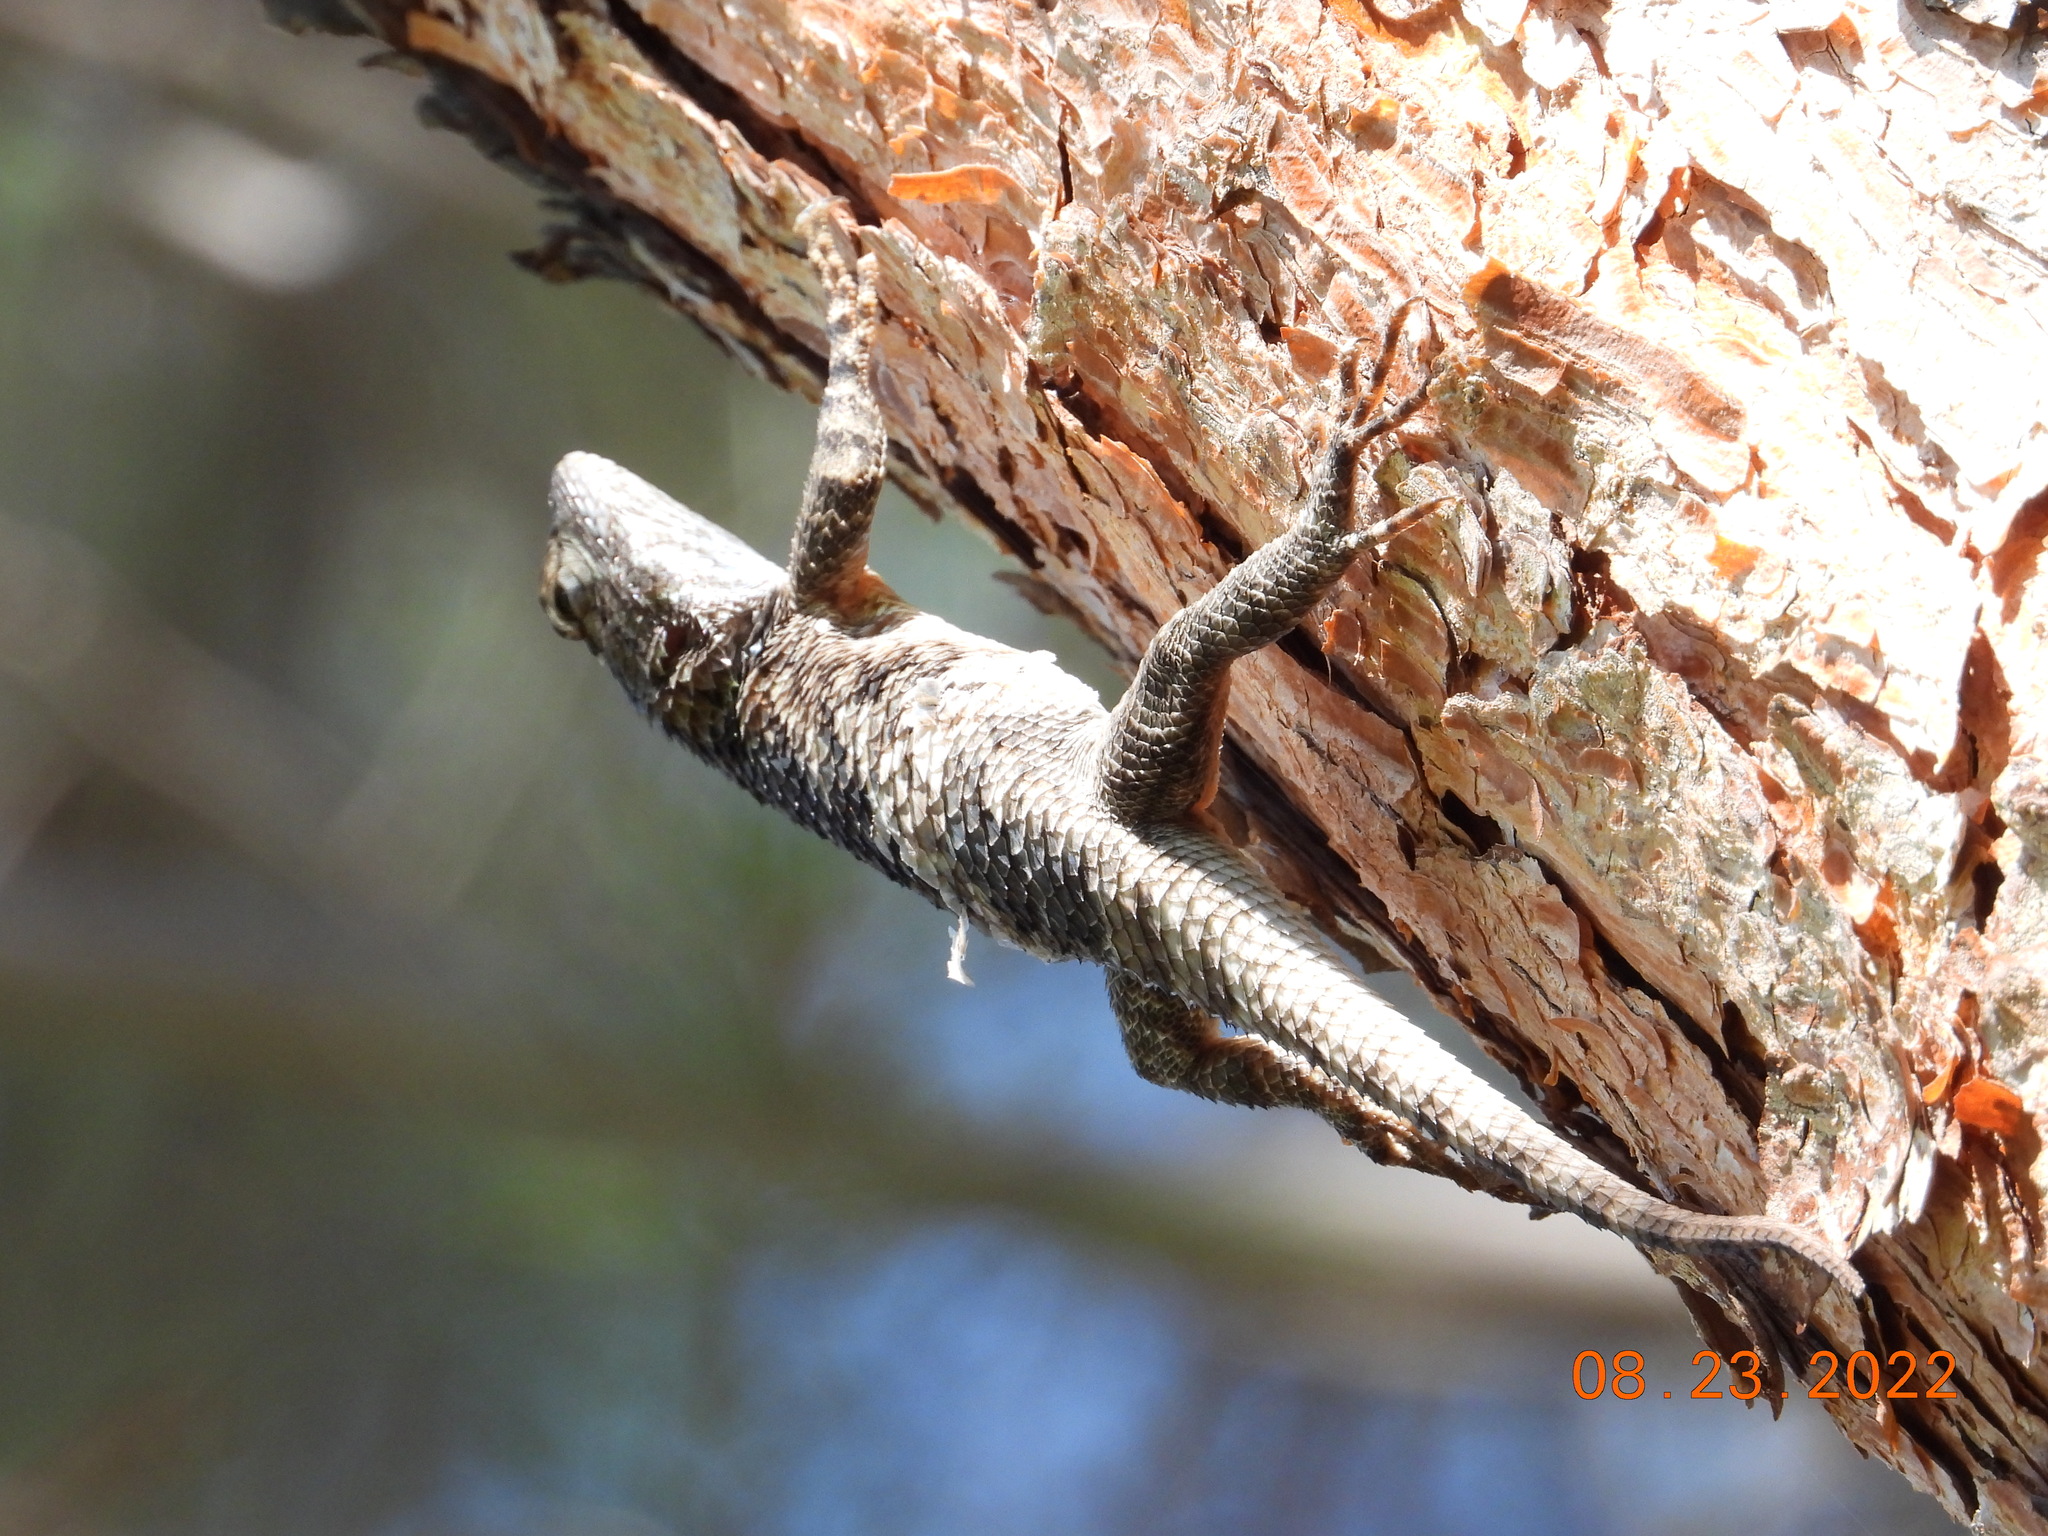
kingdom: Animalia
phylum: Chordata
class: Squamata
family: Phrynosomatidae
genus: Sceloporus
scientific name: Sceloporus clarkii
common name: Clark's spiny lizard
